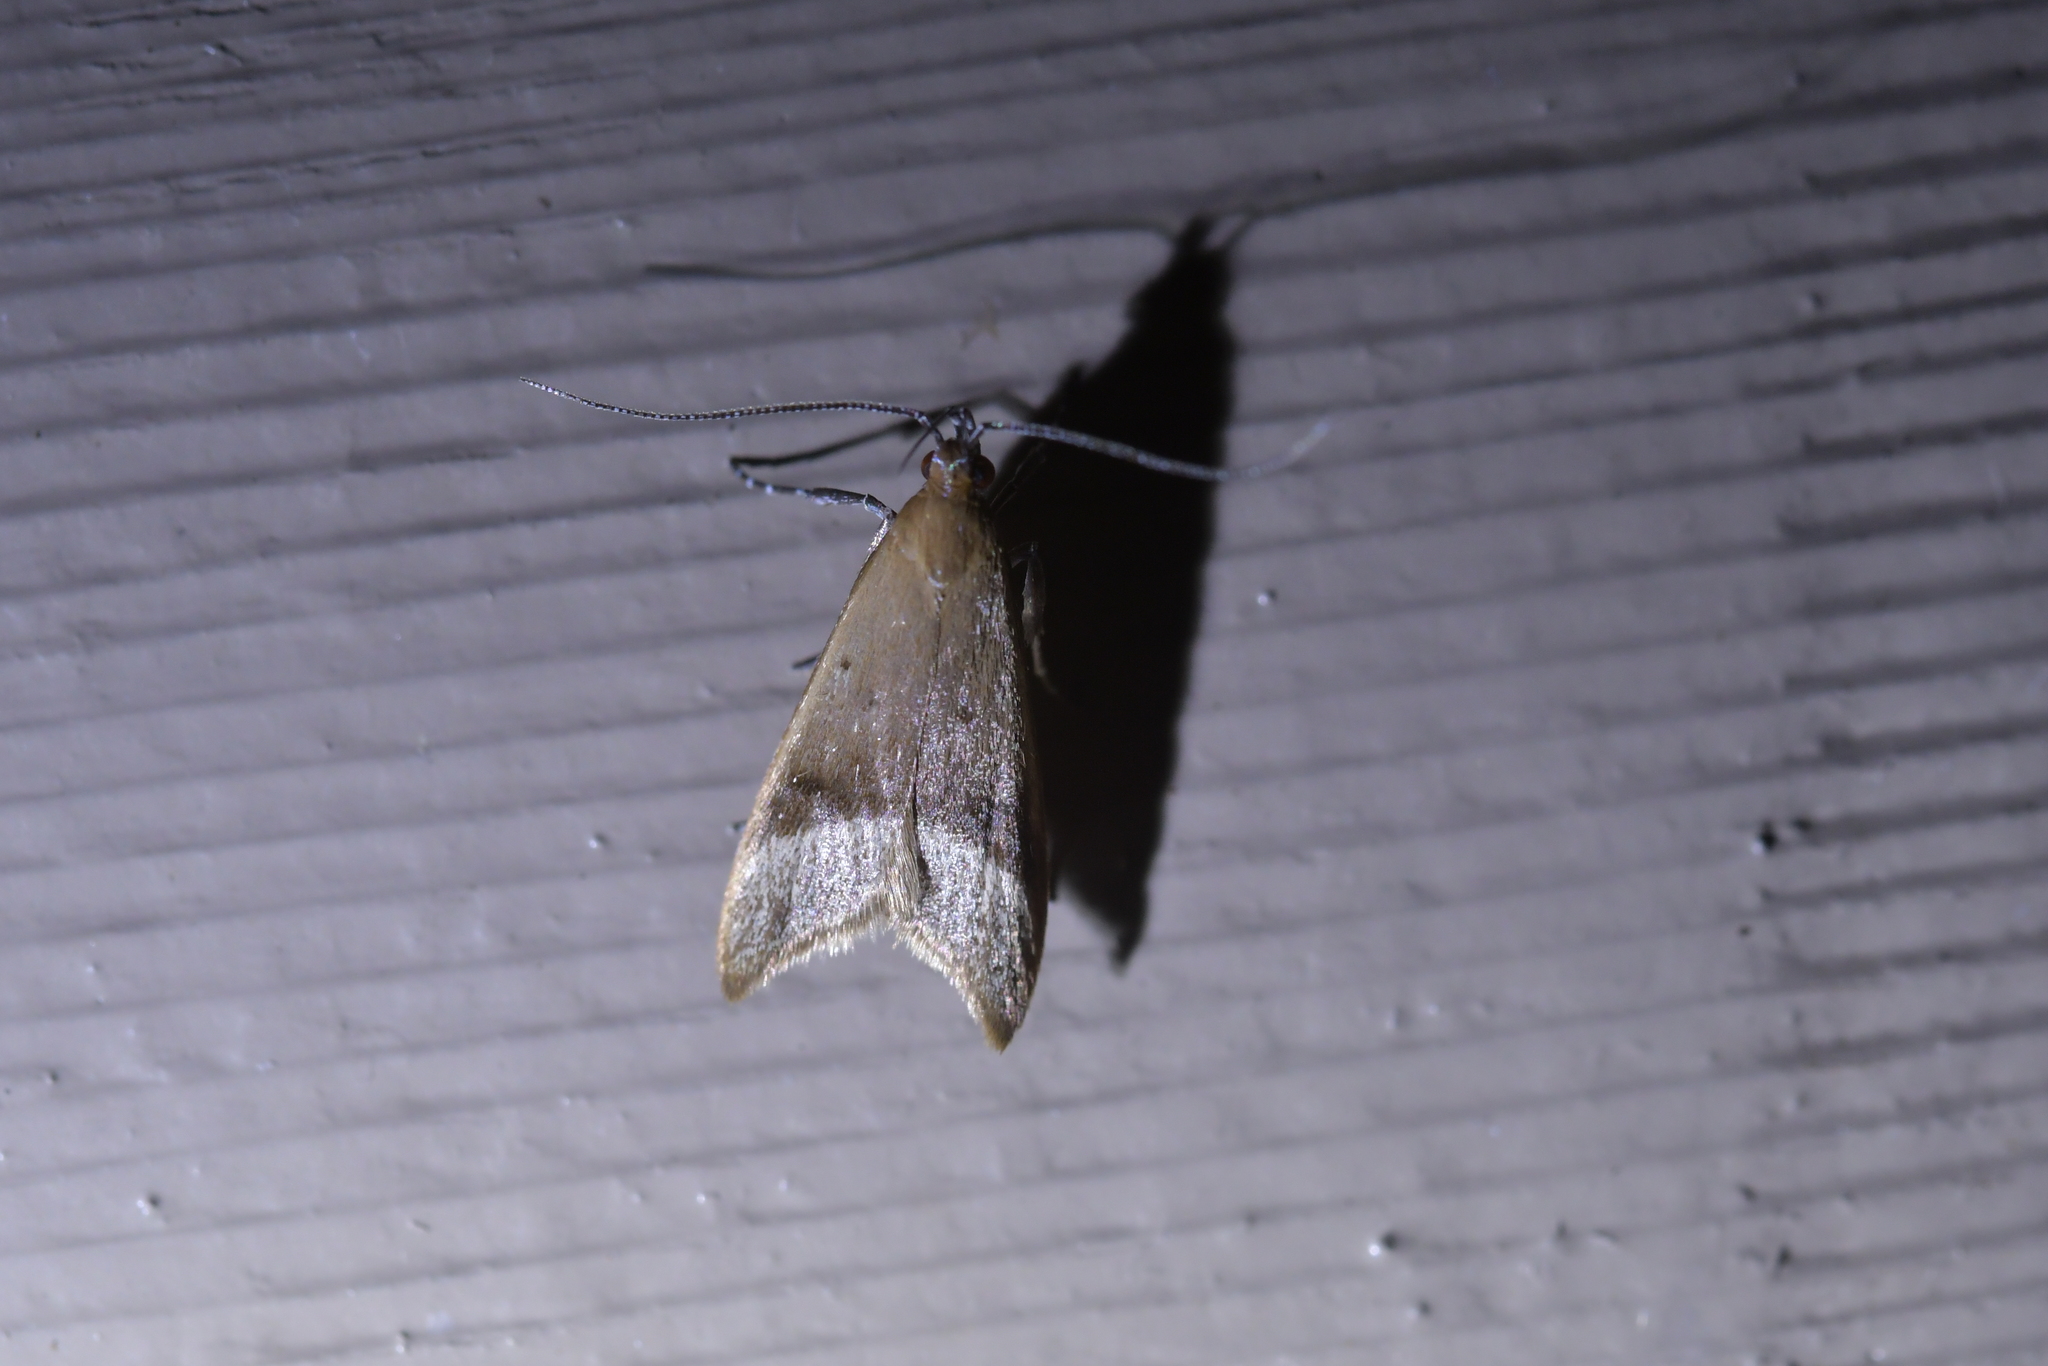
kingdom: Animalia
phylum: Arthropoda
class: Insecta
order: Lepidoptera
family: Oecophoridae
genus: Gymnobathra
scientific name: Gymnobathra hyetodes
